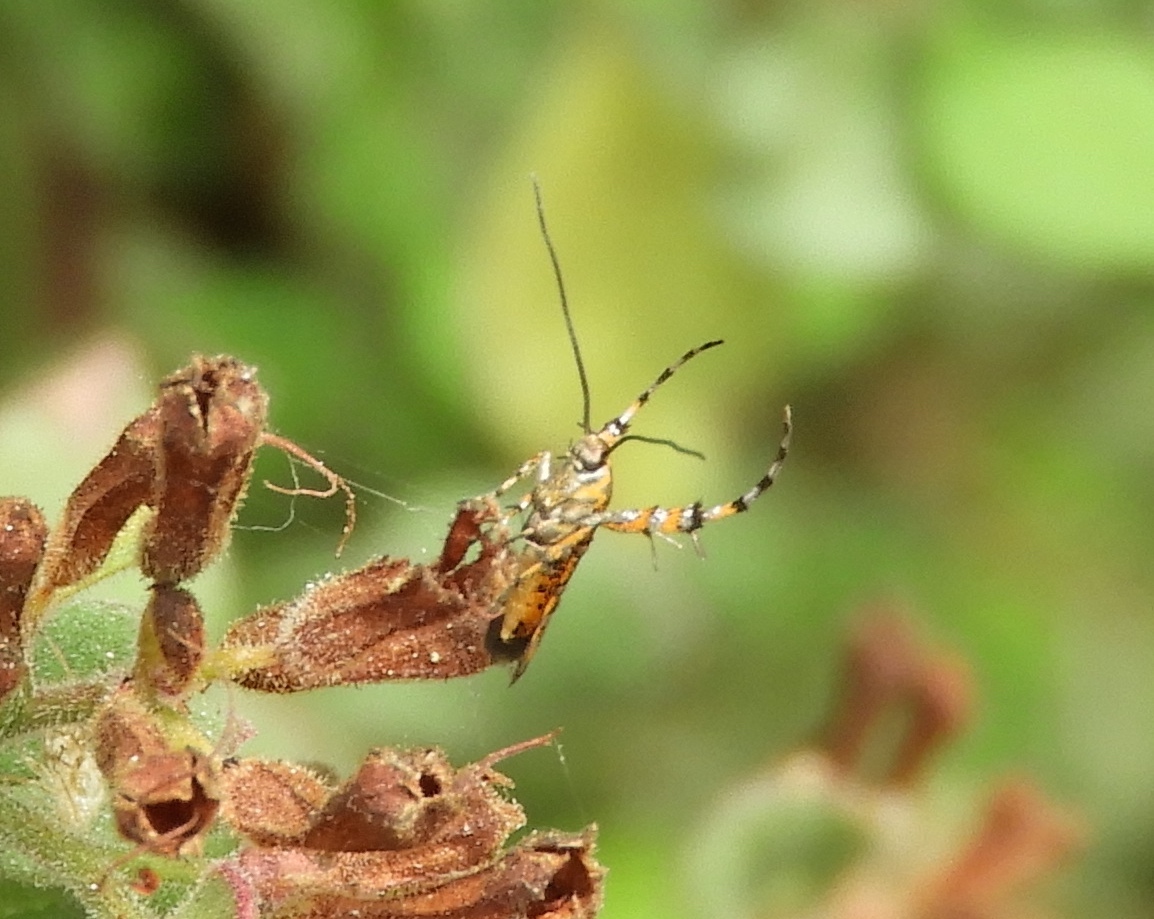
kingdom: Animalia
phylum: Arthropoda
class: Insecta
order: Lepidoptera
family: Heliodinidae
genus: Heliodines
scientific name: Heliodines
